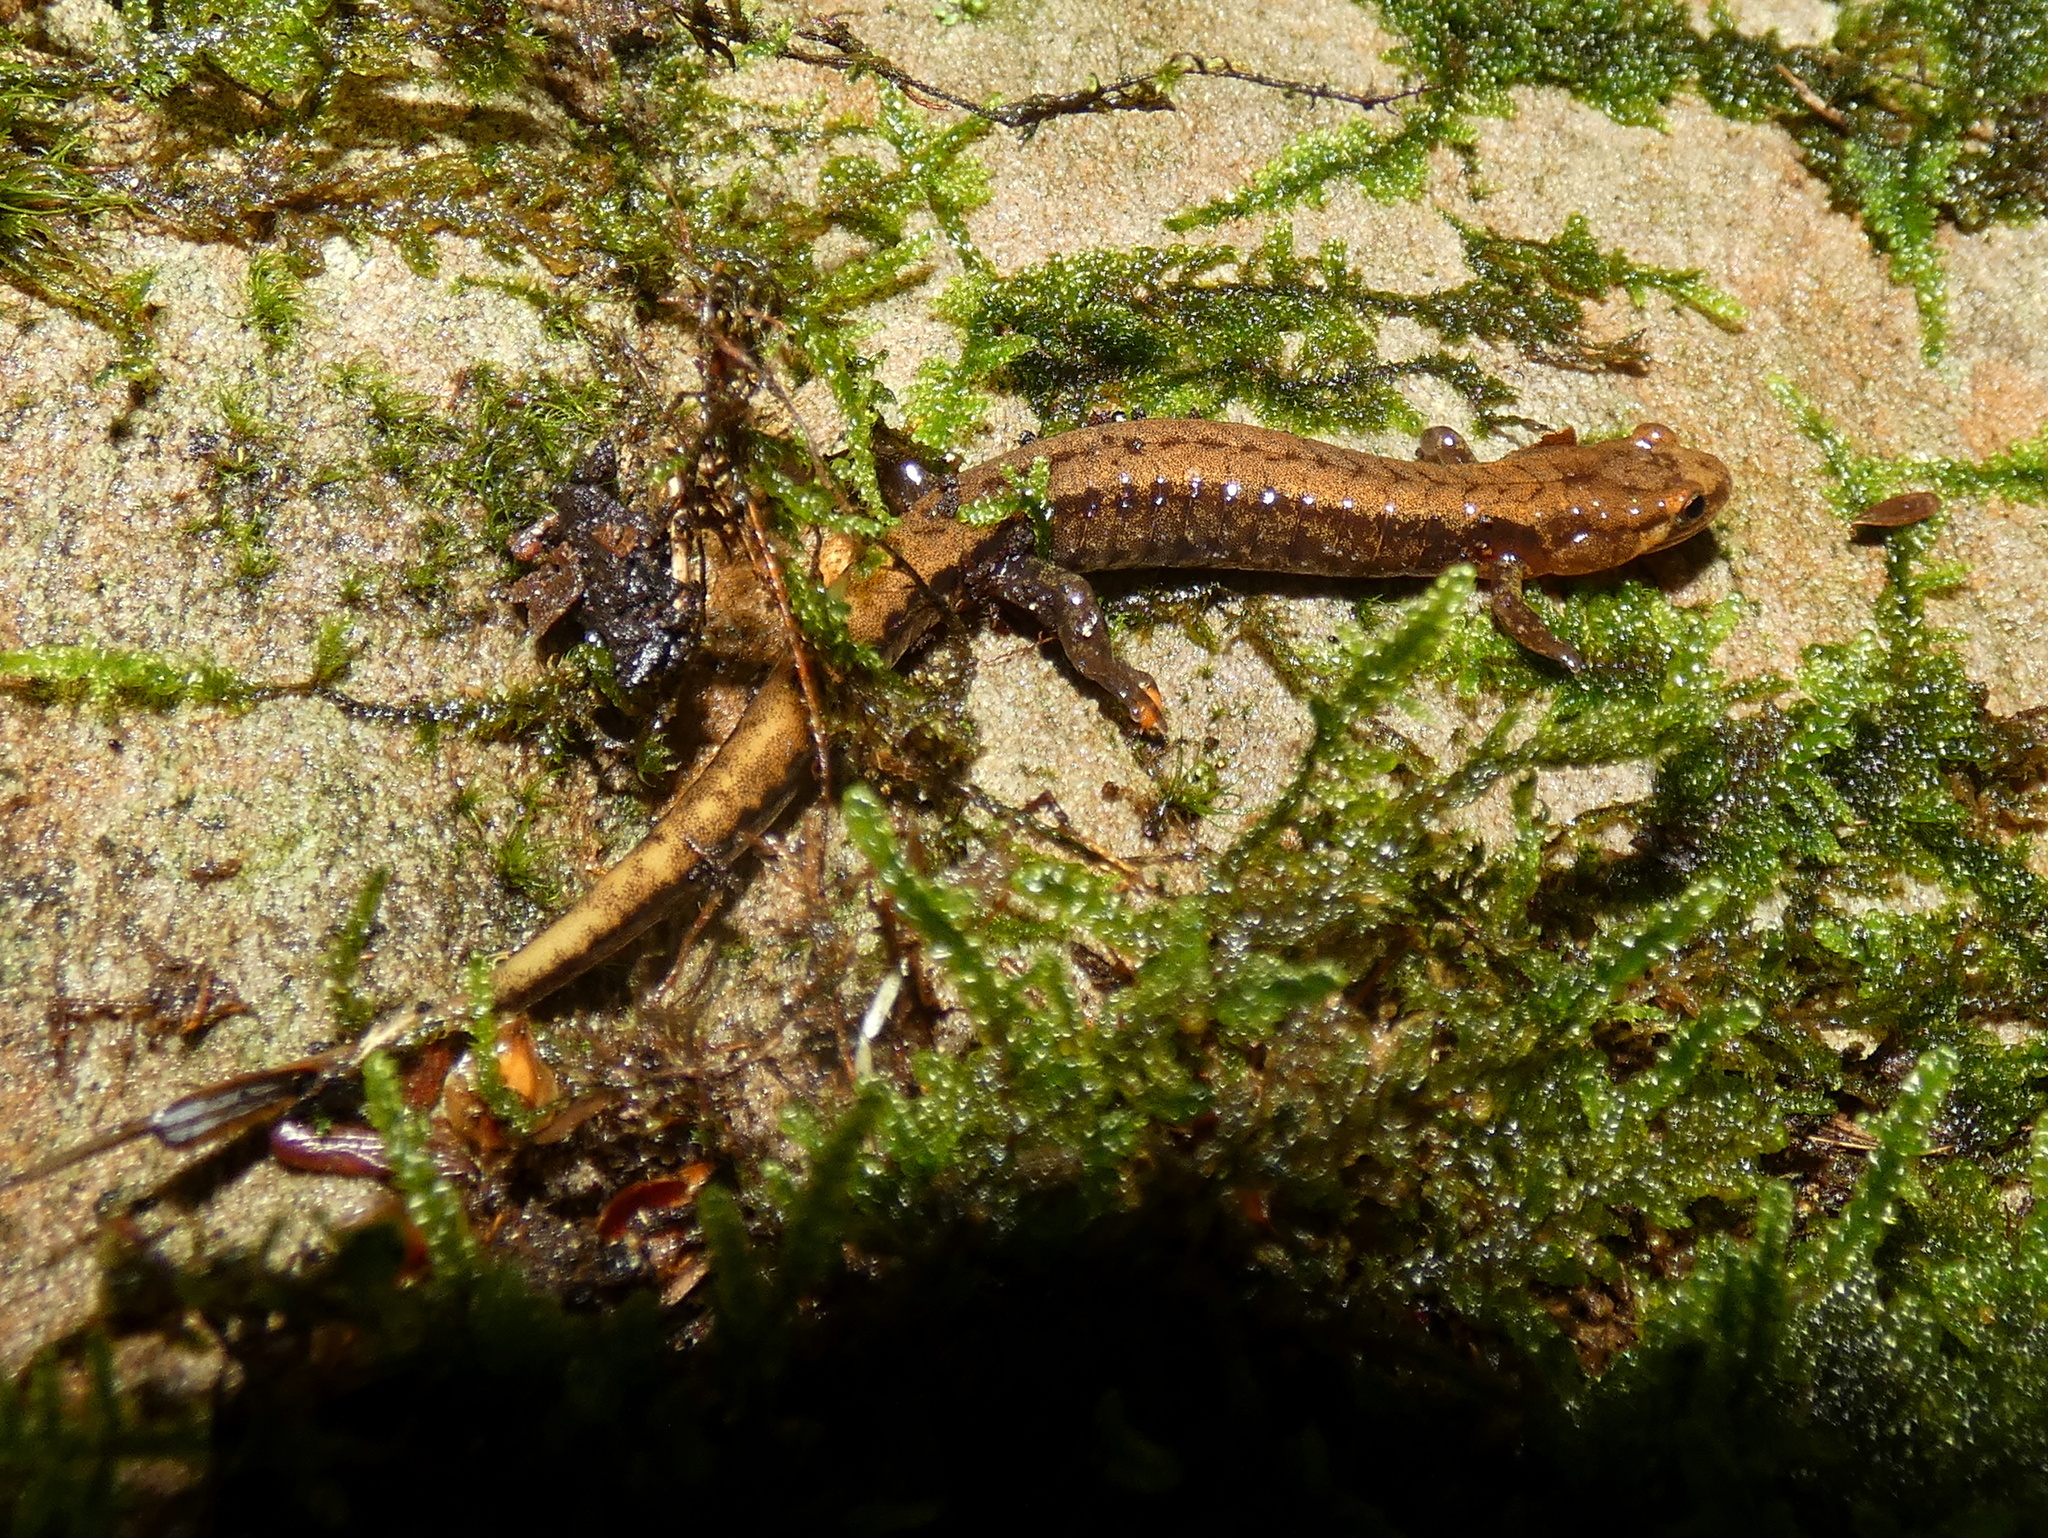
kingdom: Animalia
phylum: Chordata
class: Amphibia
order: Caudata
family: Plethodontidae
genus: Desmognathus
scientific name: Desmognathus ochrophaeus
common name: Allegheny mountain dusky salamander
